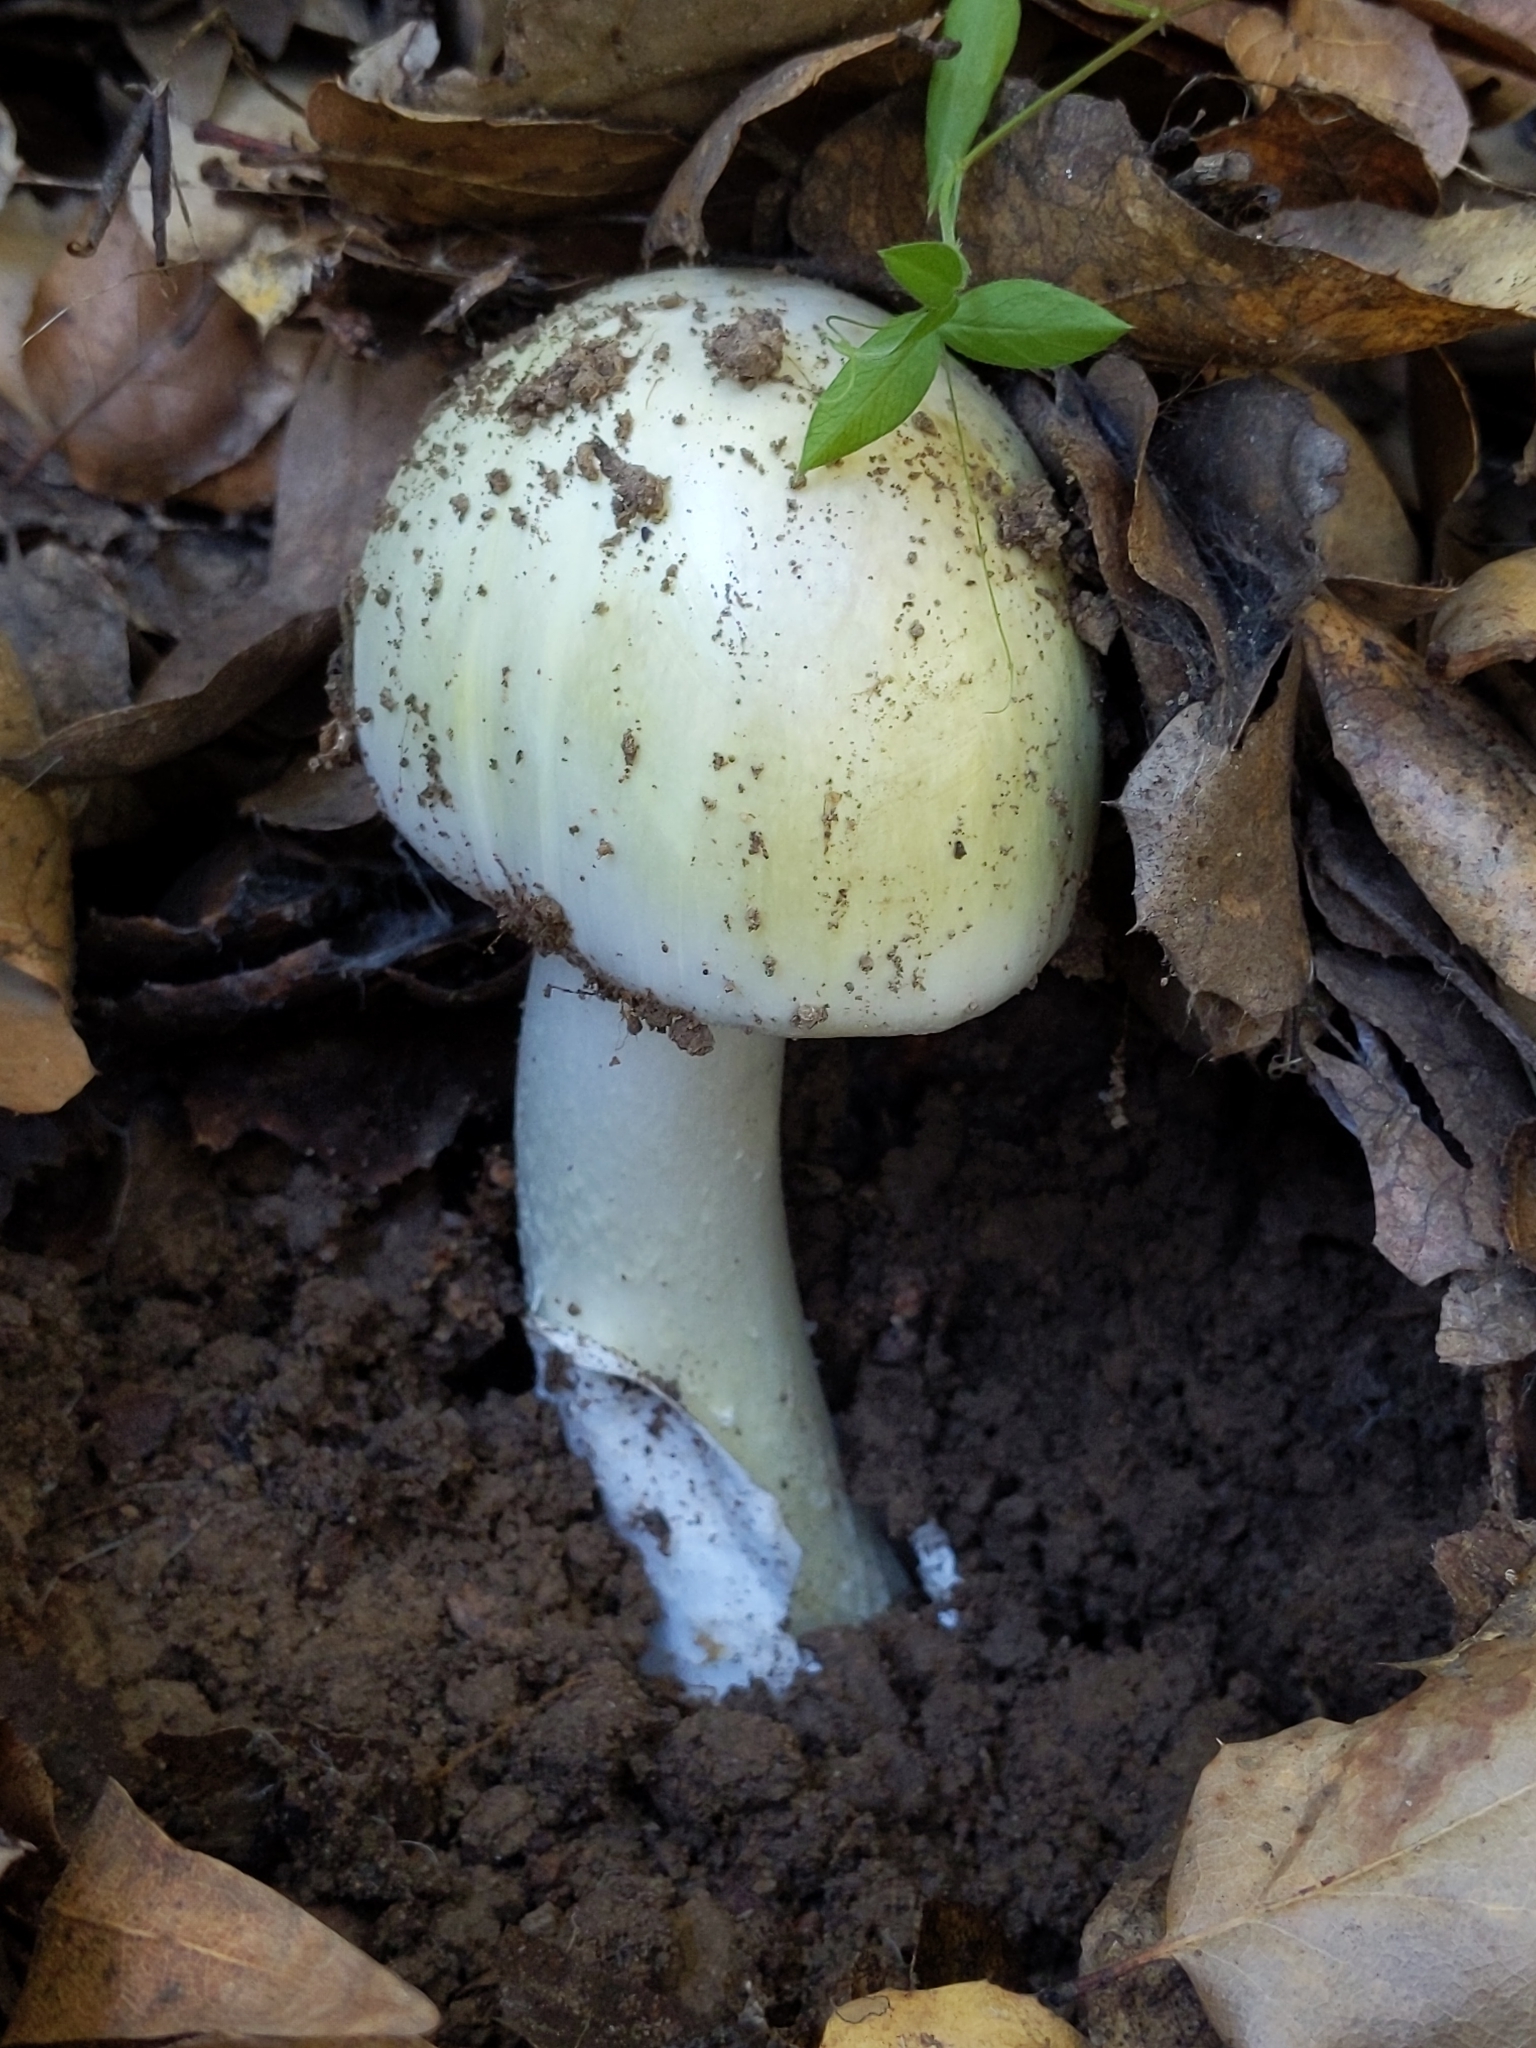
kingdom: Fungi
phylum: Basidiomycota
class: Agaricomycetes
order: Agaricales
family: Amanitaceae
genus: Amanita
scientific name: Amanita phalloides
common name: Death cap
